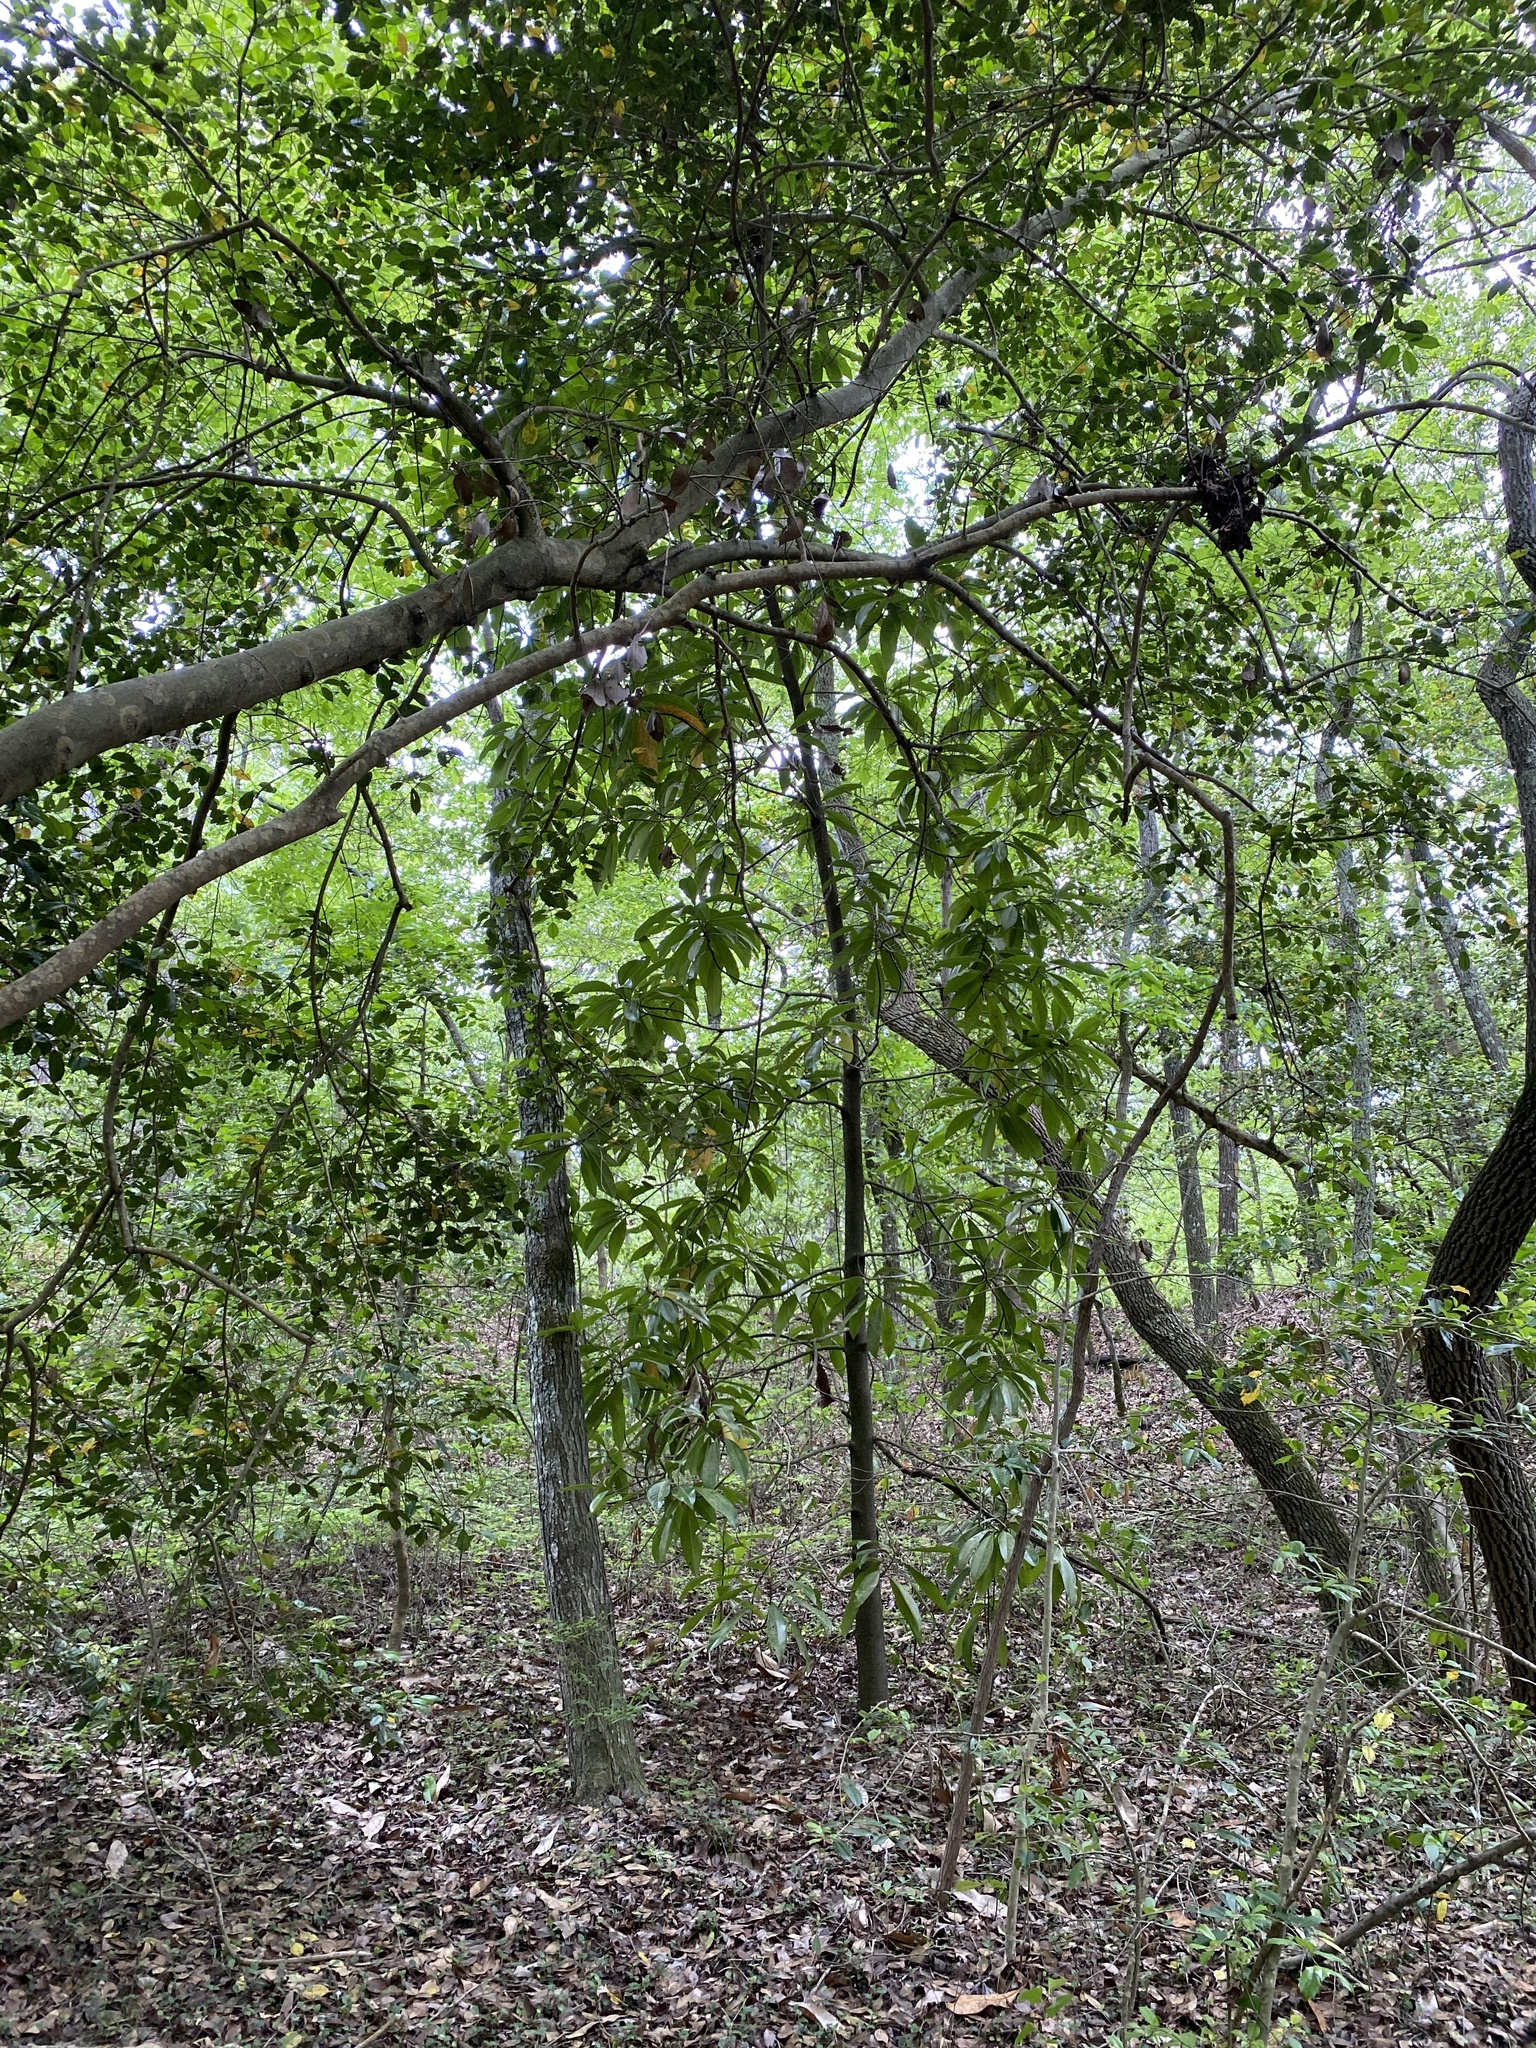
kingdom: Plantae
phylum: Tracheophyta
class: Magnoliopsida
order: Magnoliales
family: Magnoliaceae
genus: Magnolia
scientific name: Magnolia grandiflora
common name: Southern magnolia
